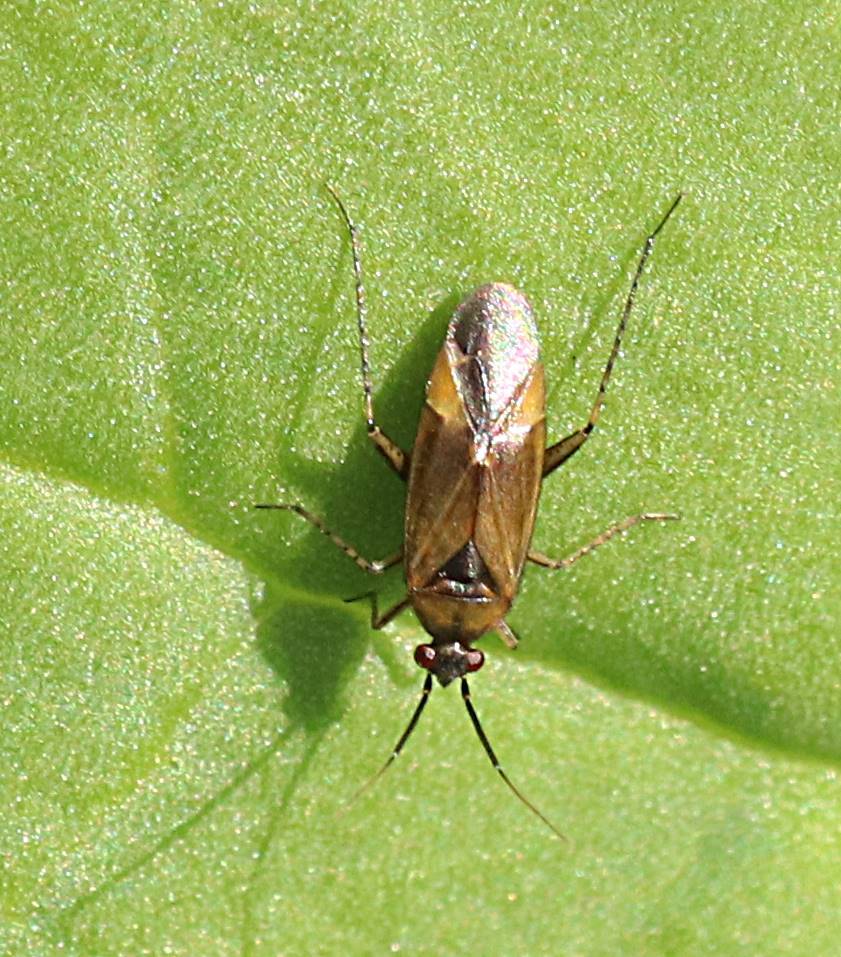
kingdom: Animalia
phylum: Arthropoda
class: Insecta
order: Hemiptera
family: Miridae
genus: Plagiognathus
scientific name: Plagiognathus arbustorum
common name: Plant bug
